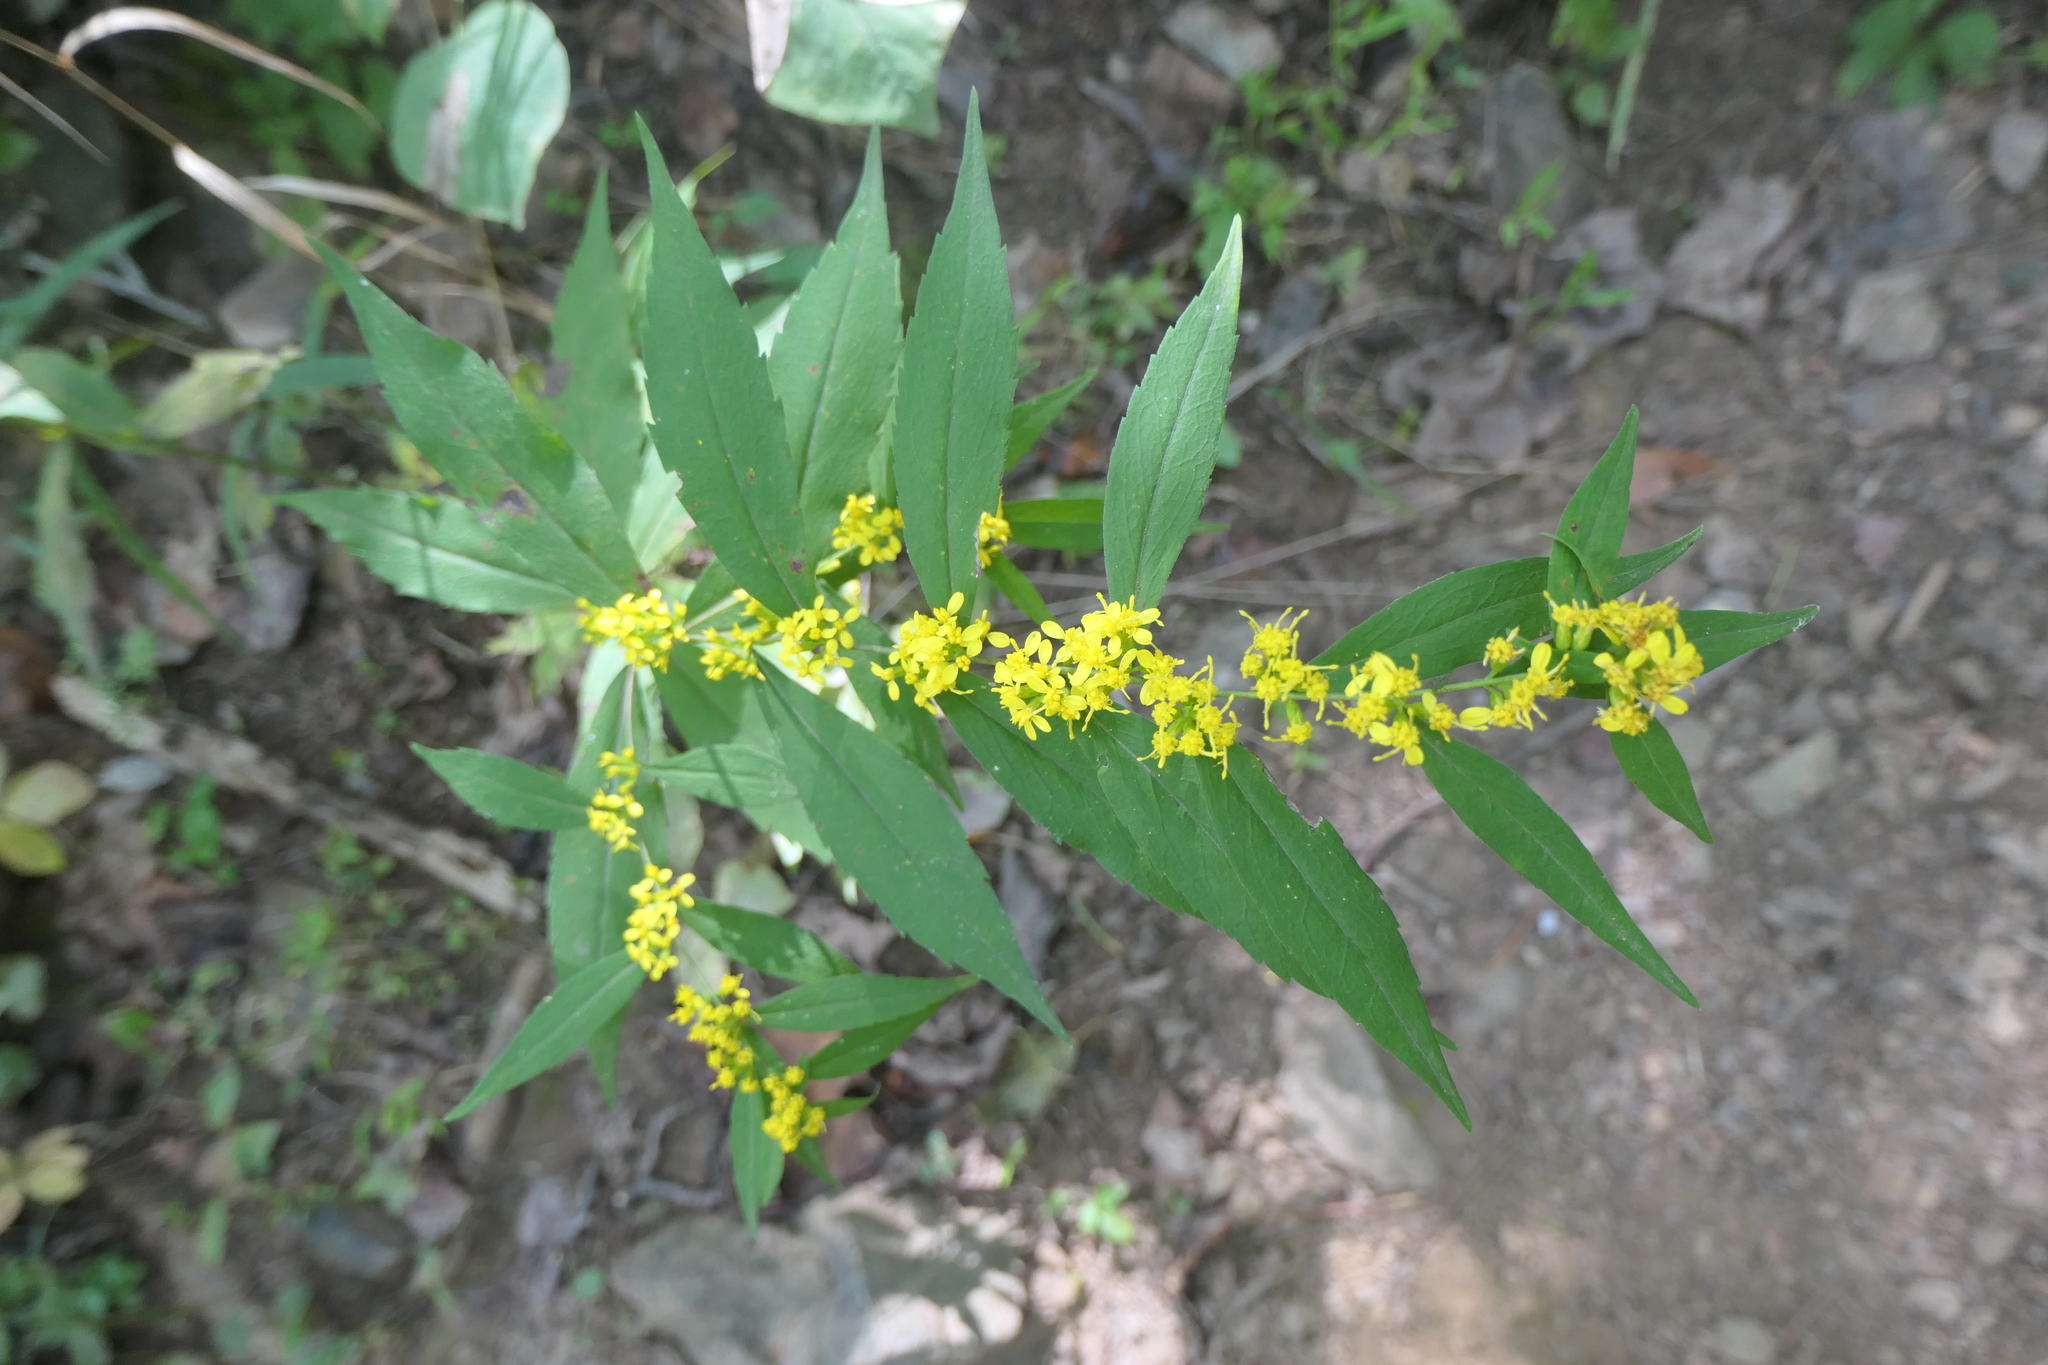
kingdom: Plantae
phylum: Tracheophyta
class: Magnoliopsida
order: Asterales
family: Asteraceae
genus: Solidago
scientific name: Solidago caesia
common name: Woodland goldenrod
